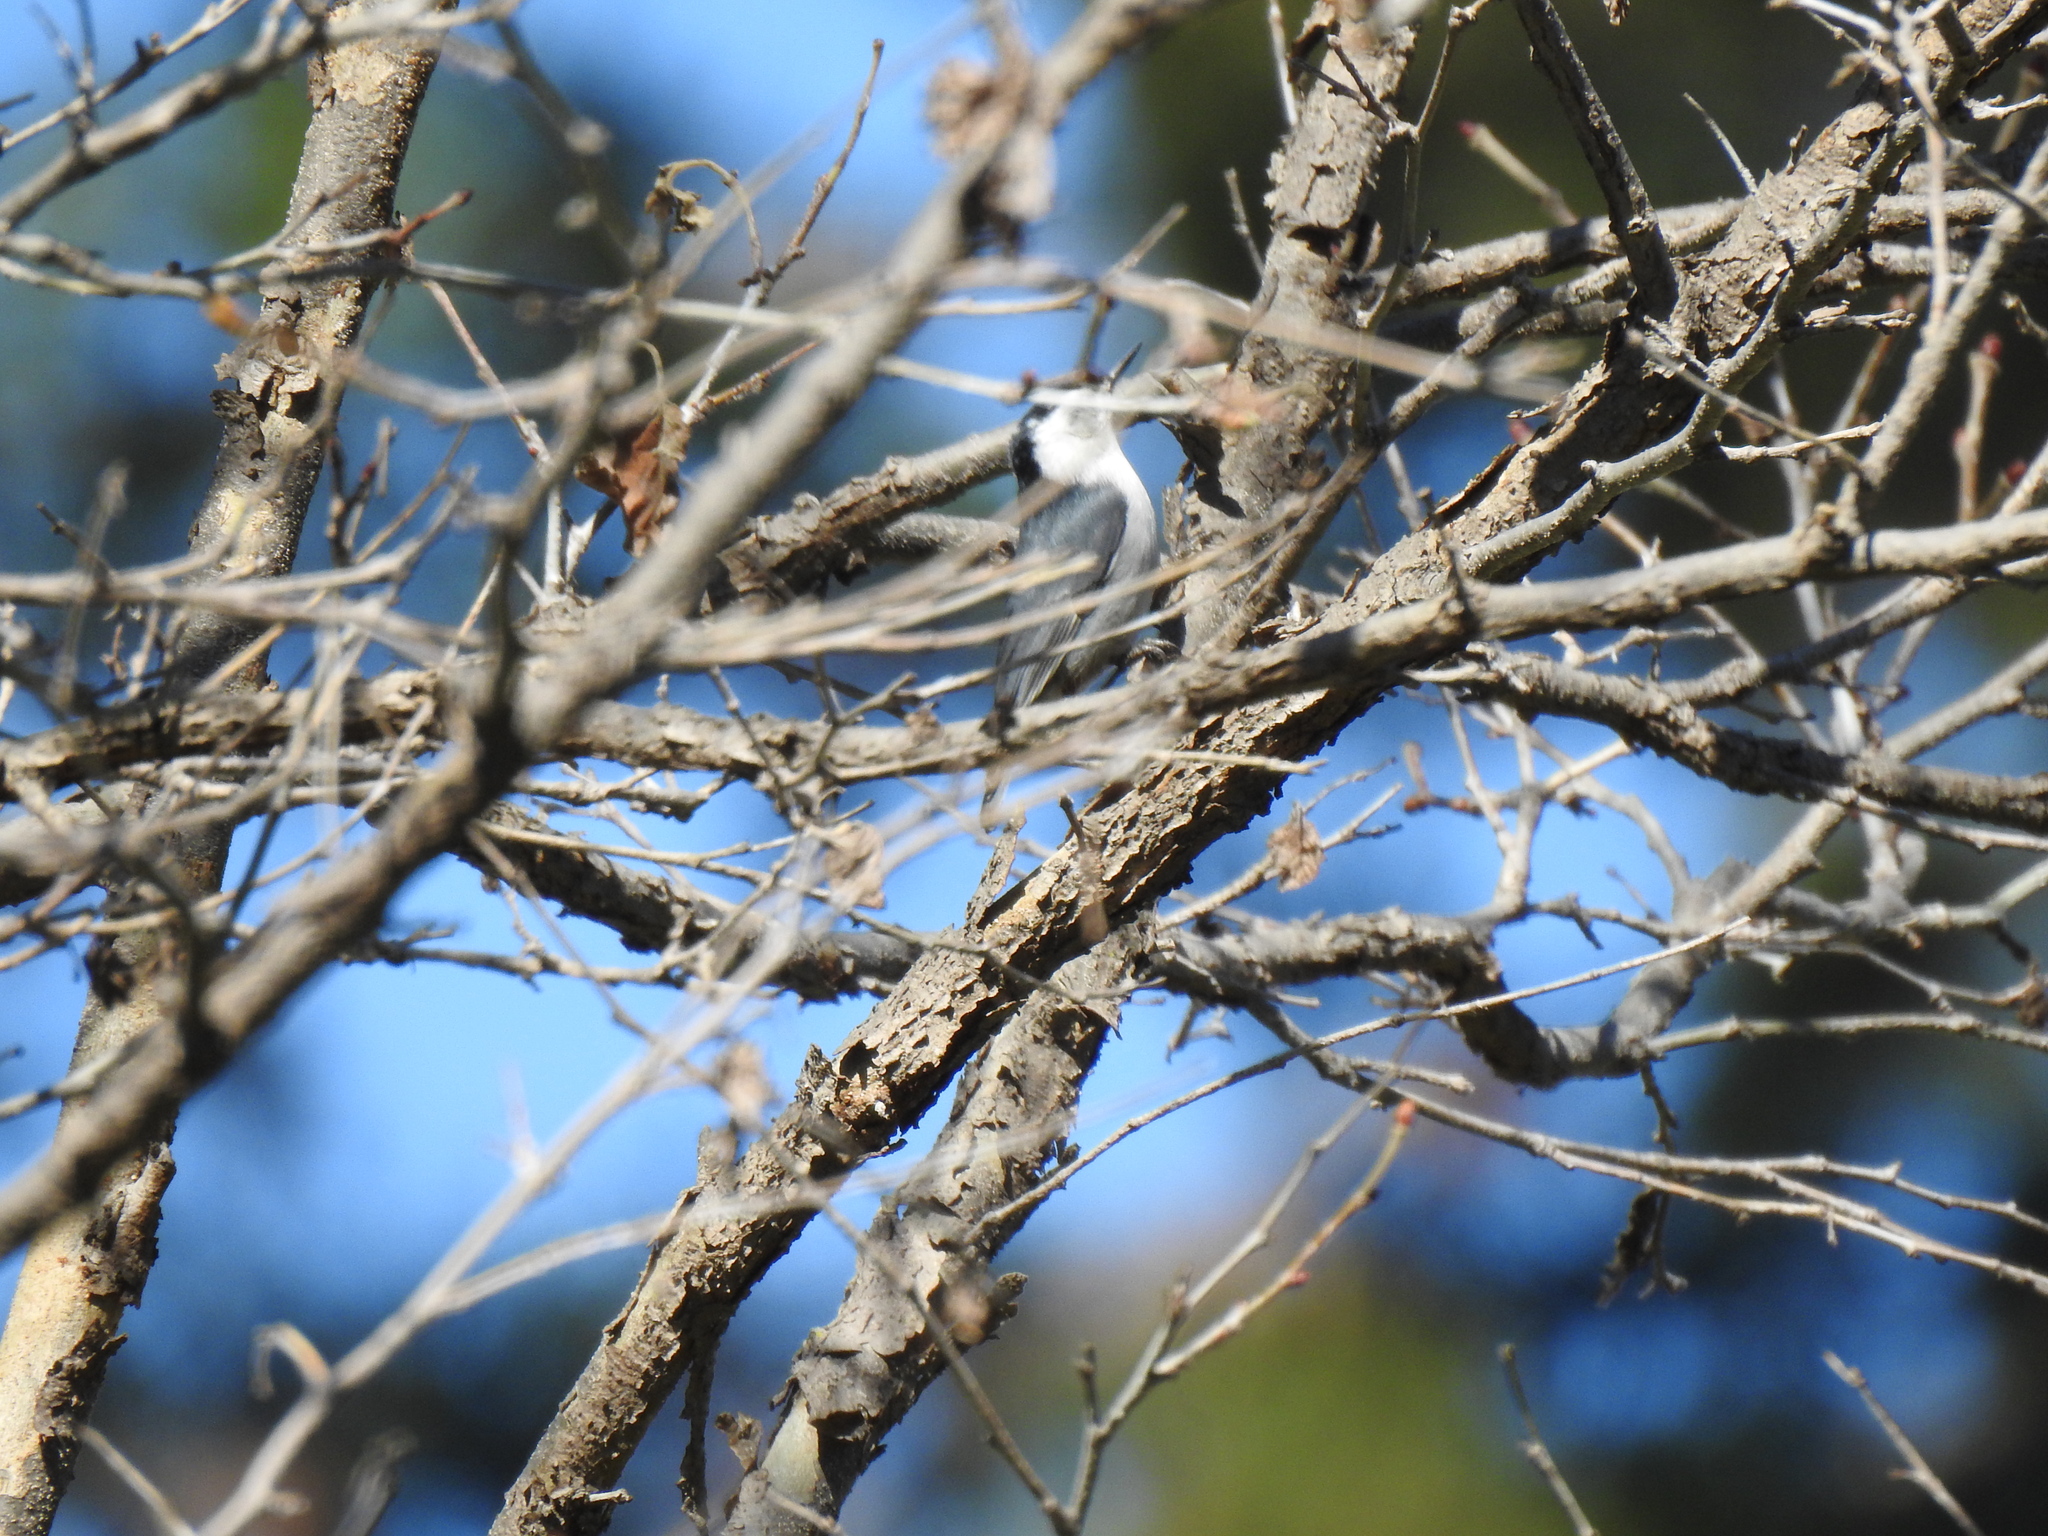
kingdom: Animalia
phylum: Chordata
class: Aves
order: Passeriformes
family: Sittidae
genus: Sitta
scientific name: Sitta carolinensis
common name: White-breasted nuthatch
